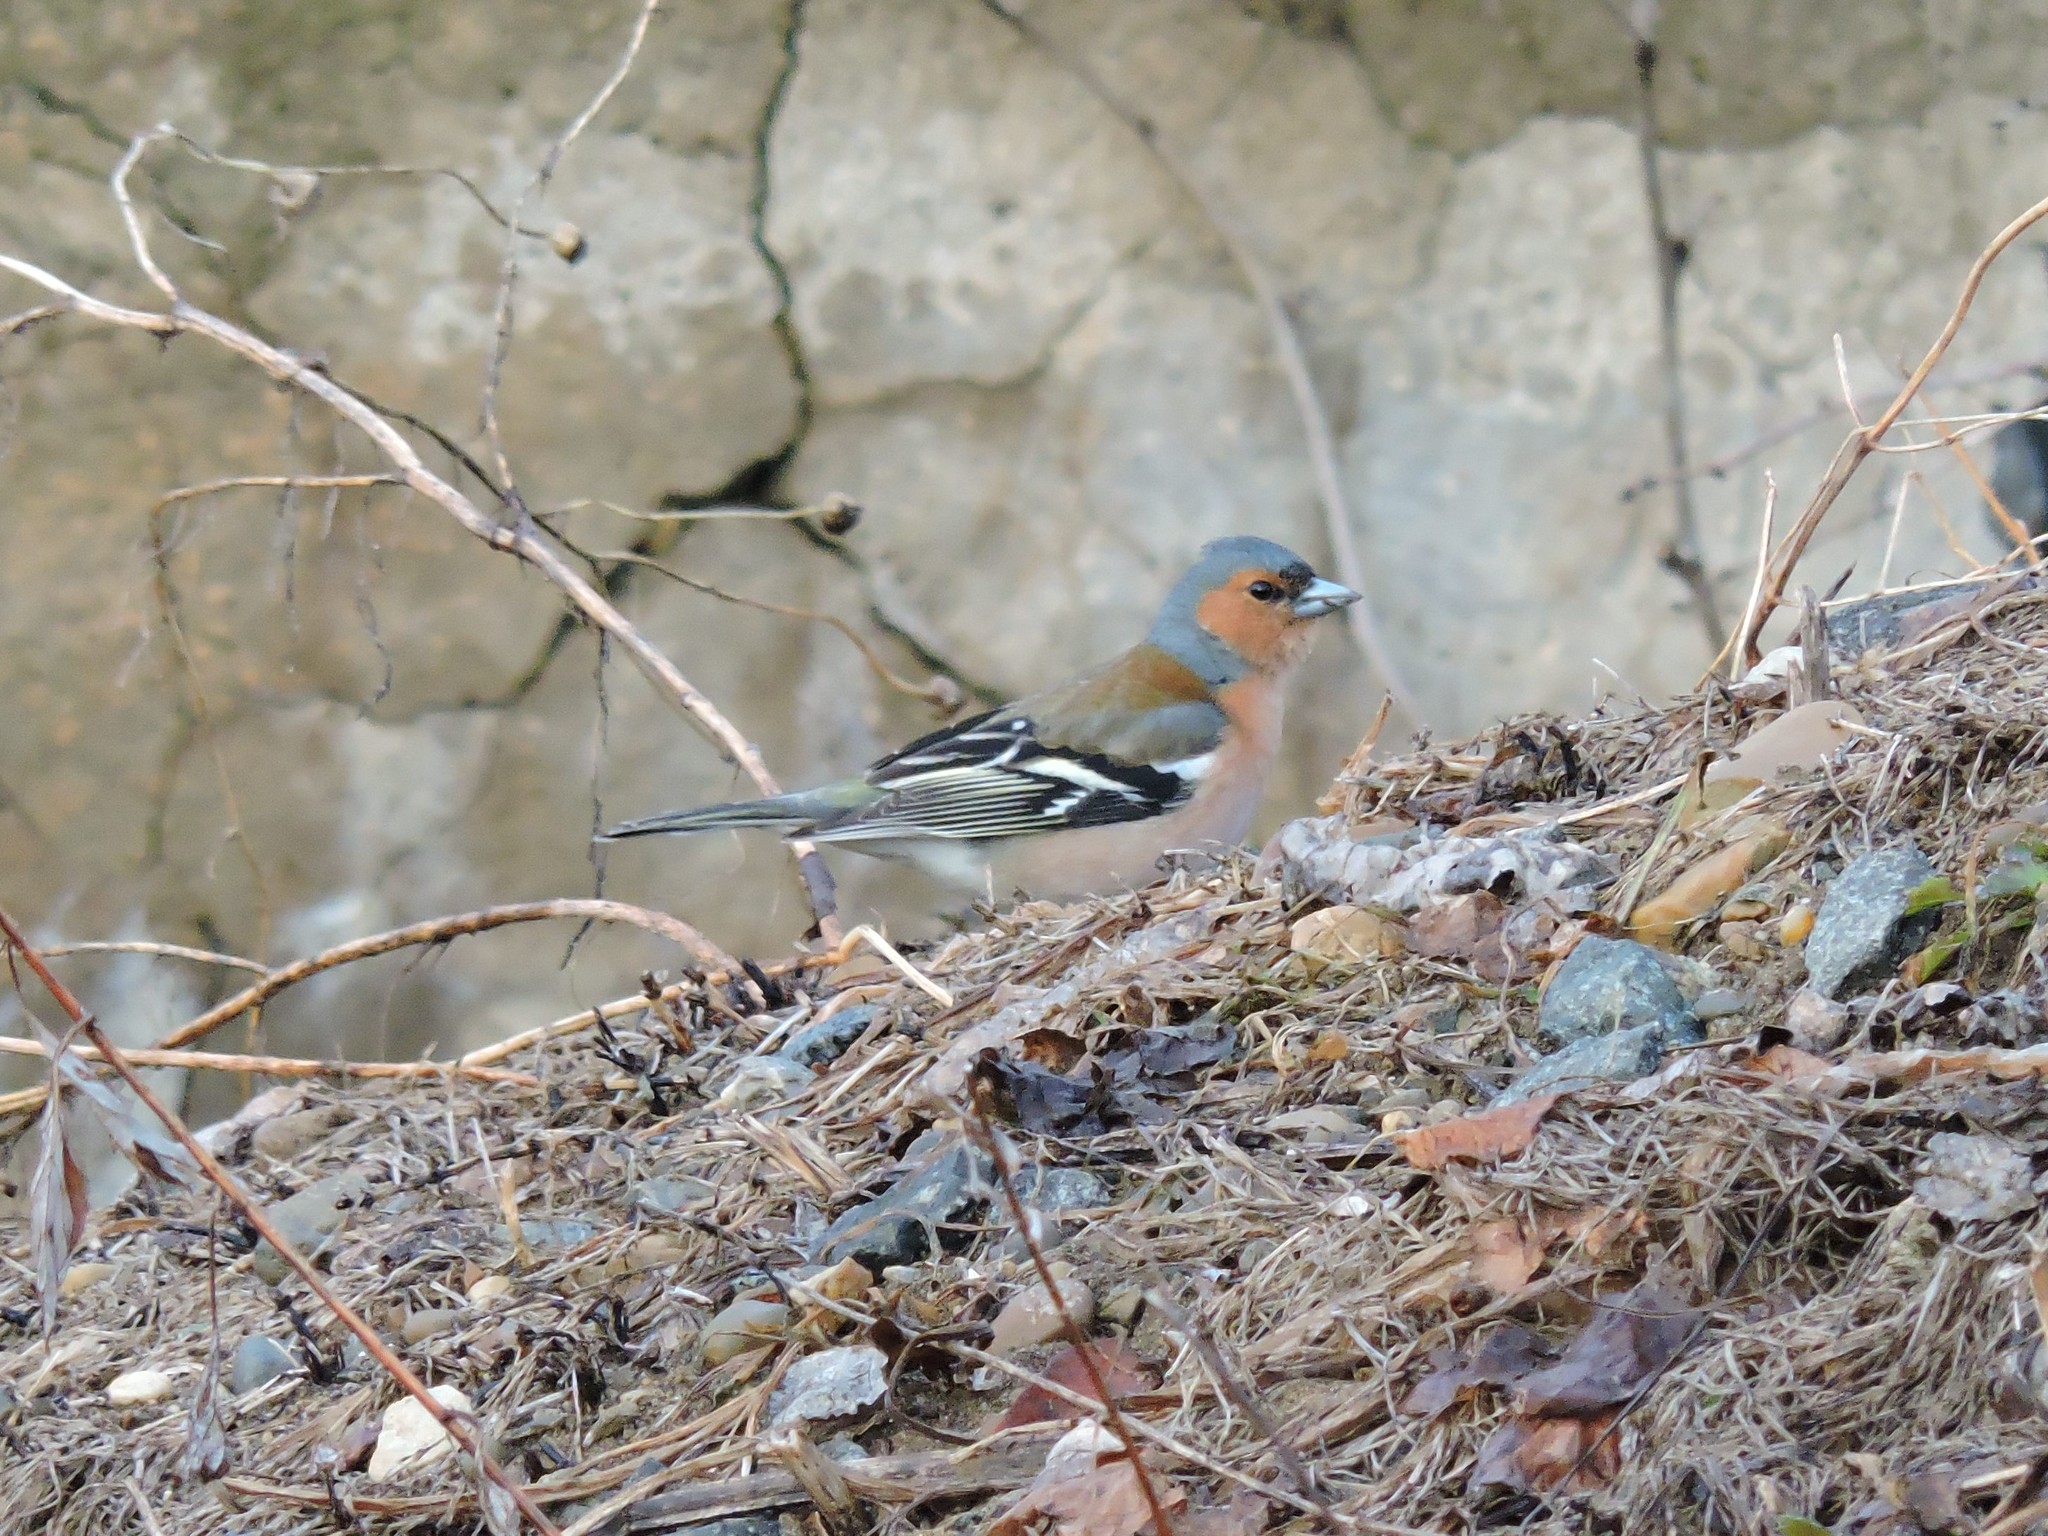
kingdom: Animalia
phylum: Chordata
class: Aves
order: Passeriformes
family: Fringillidae
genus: Fringilla
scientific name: Fringilla coelebs
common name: Common chaffinch
